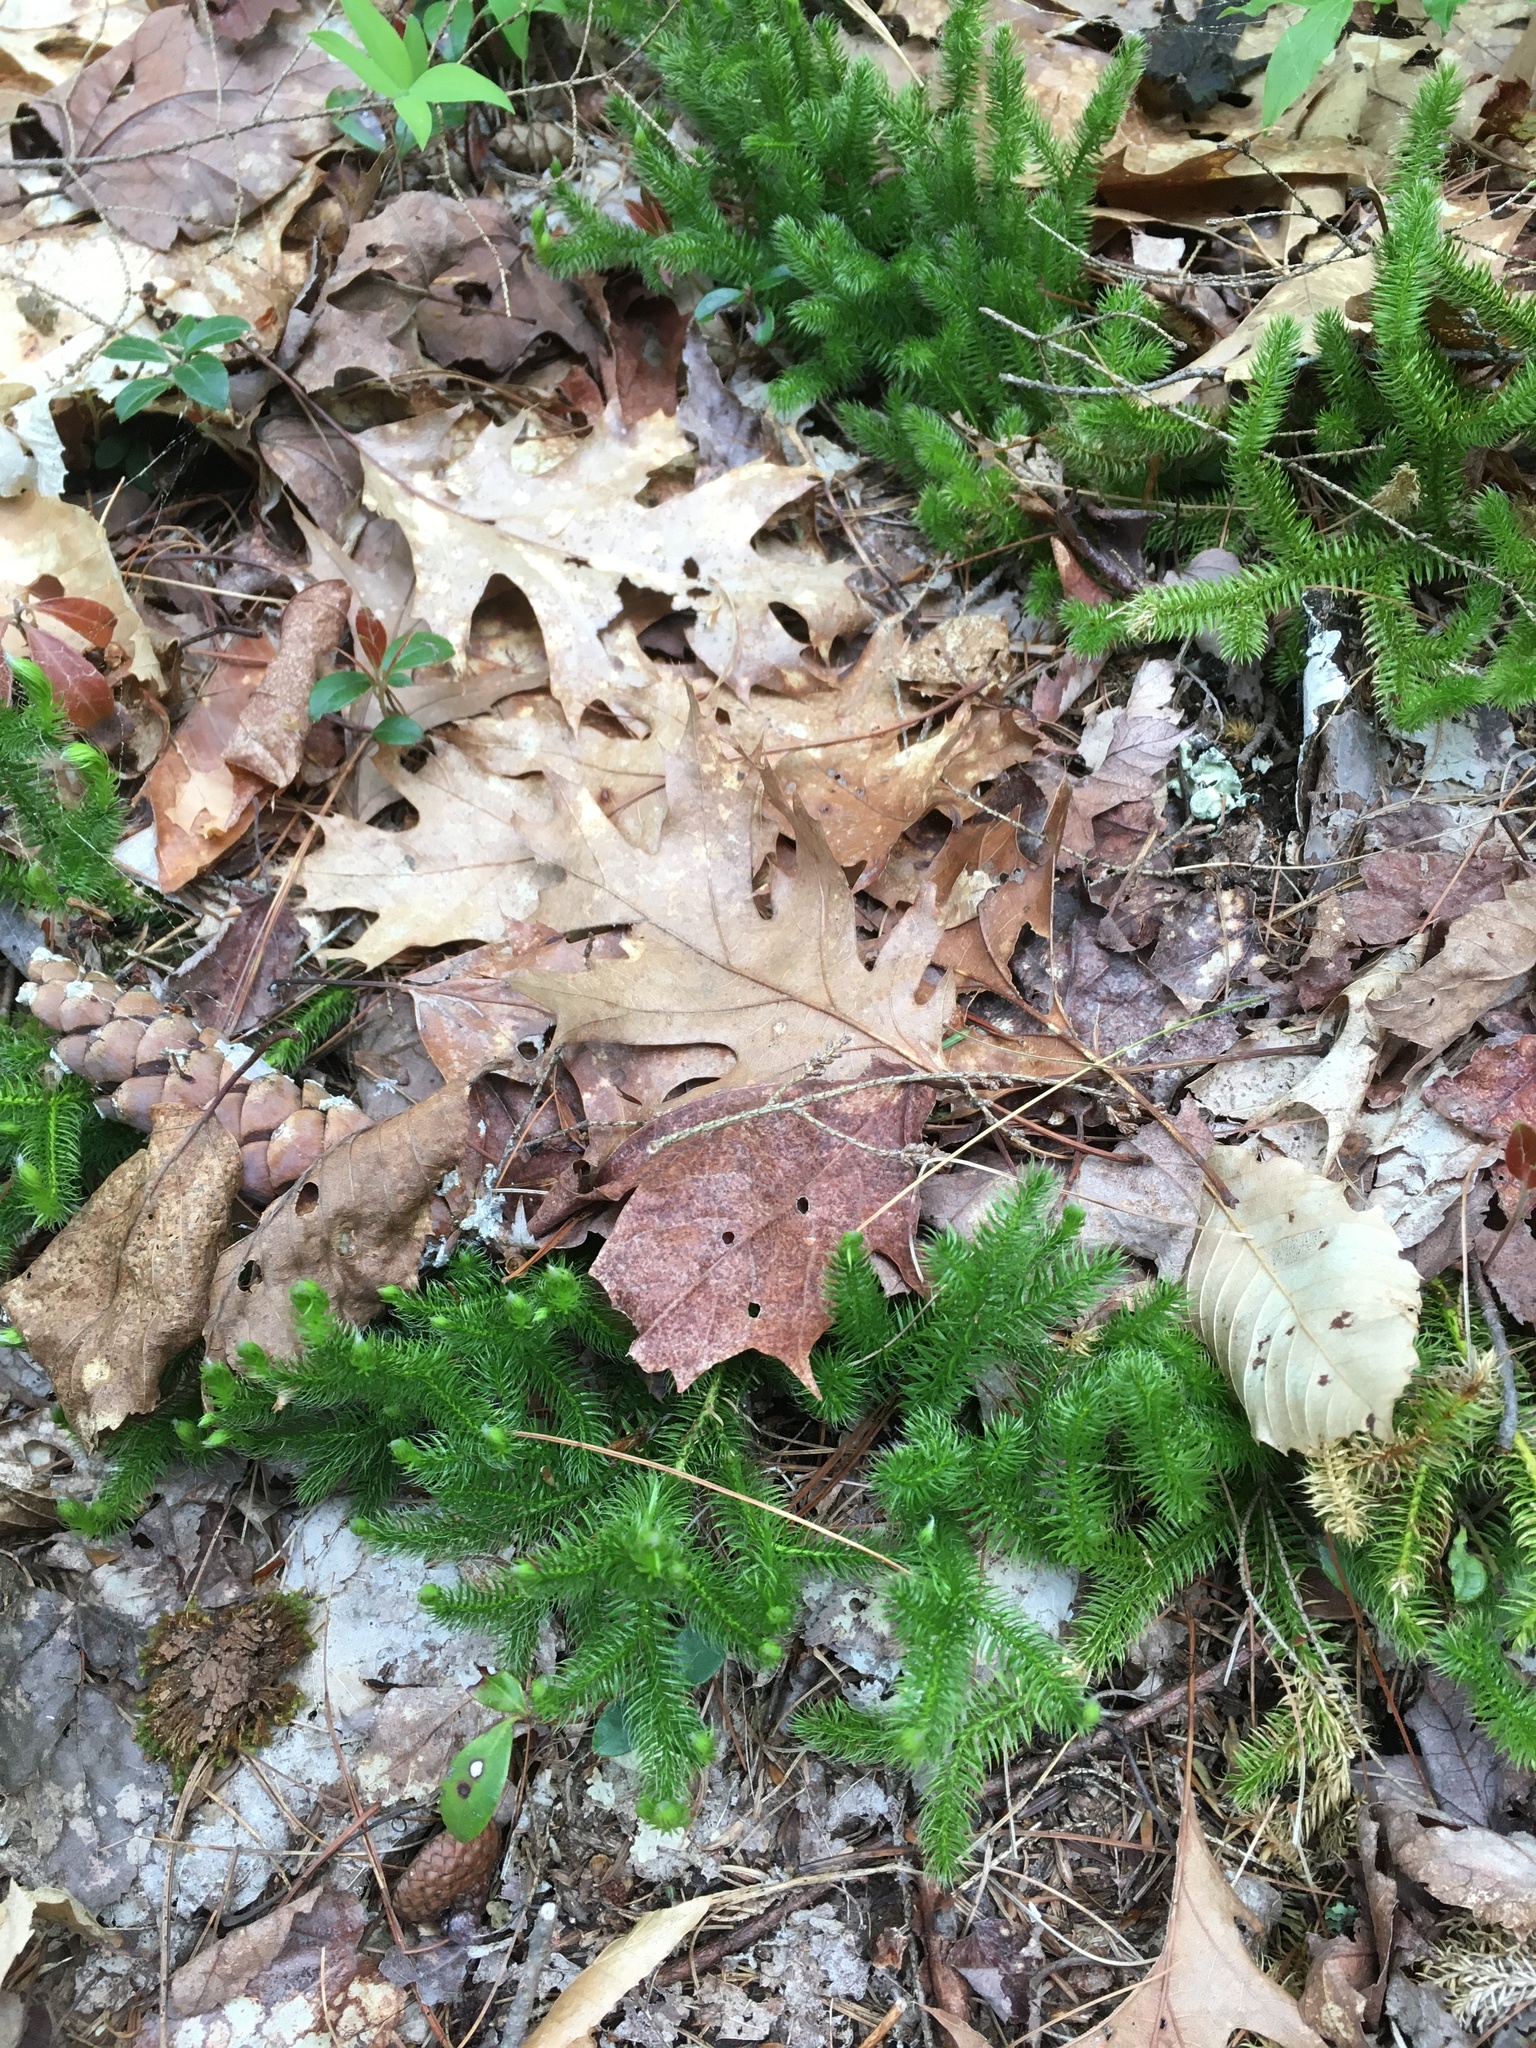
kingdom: Plantae
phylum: Tracheophyta
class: Lycopodiopsida
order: Lycopodiales
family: Lycopodiaceae
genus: Lycopodium
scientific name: Lycopodium clavatum
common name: Stag's-horn clubmoss
